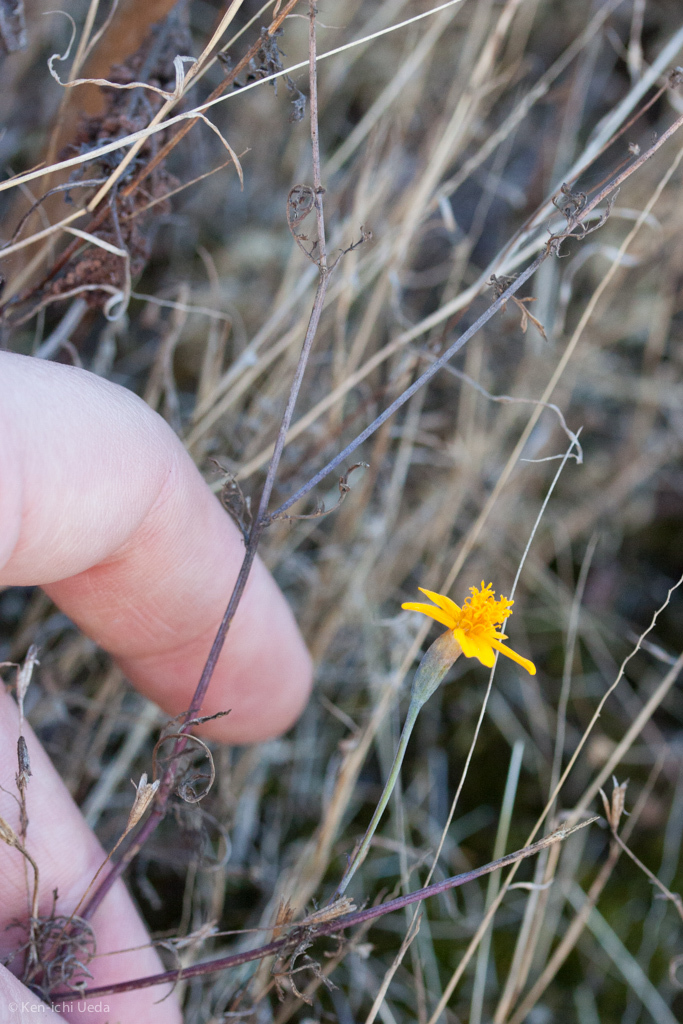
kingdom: Plantae
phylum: Tracheophyta
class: Magnoliopsida
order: Asterales
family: Asteraceae
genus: Tagetes
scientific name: Tagetes lunulata
